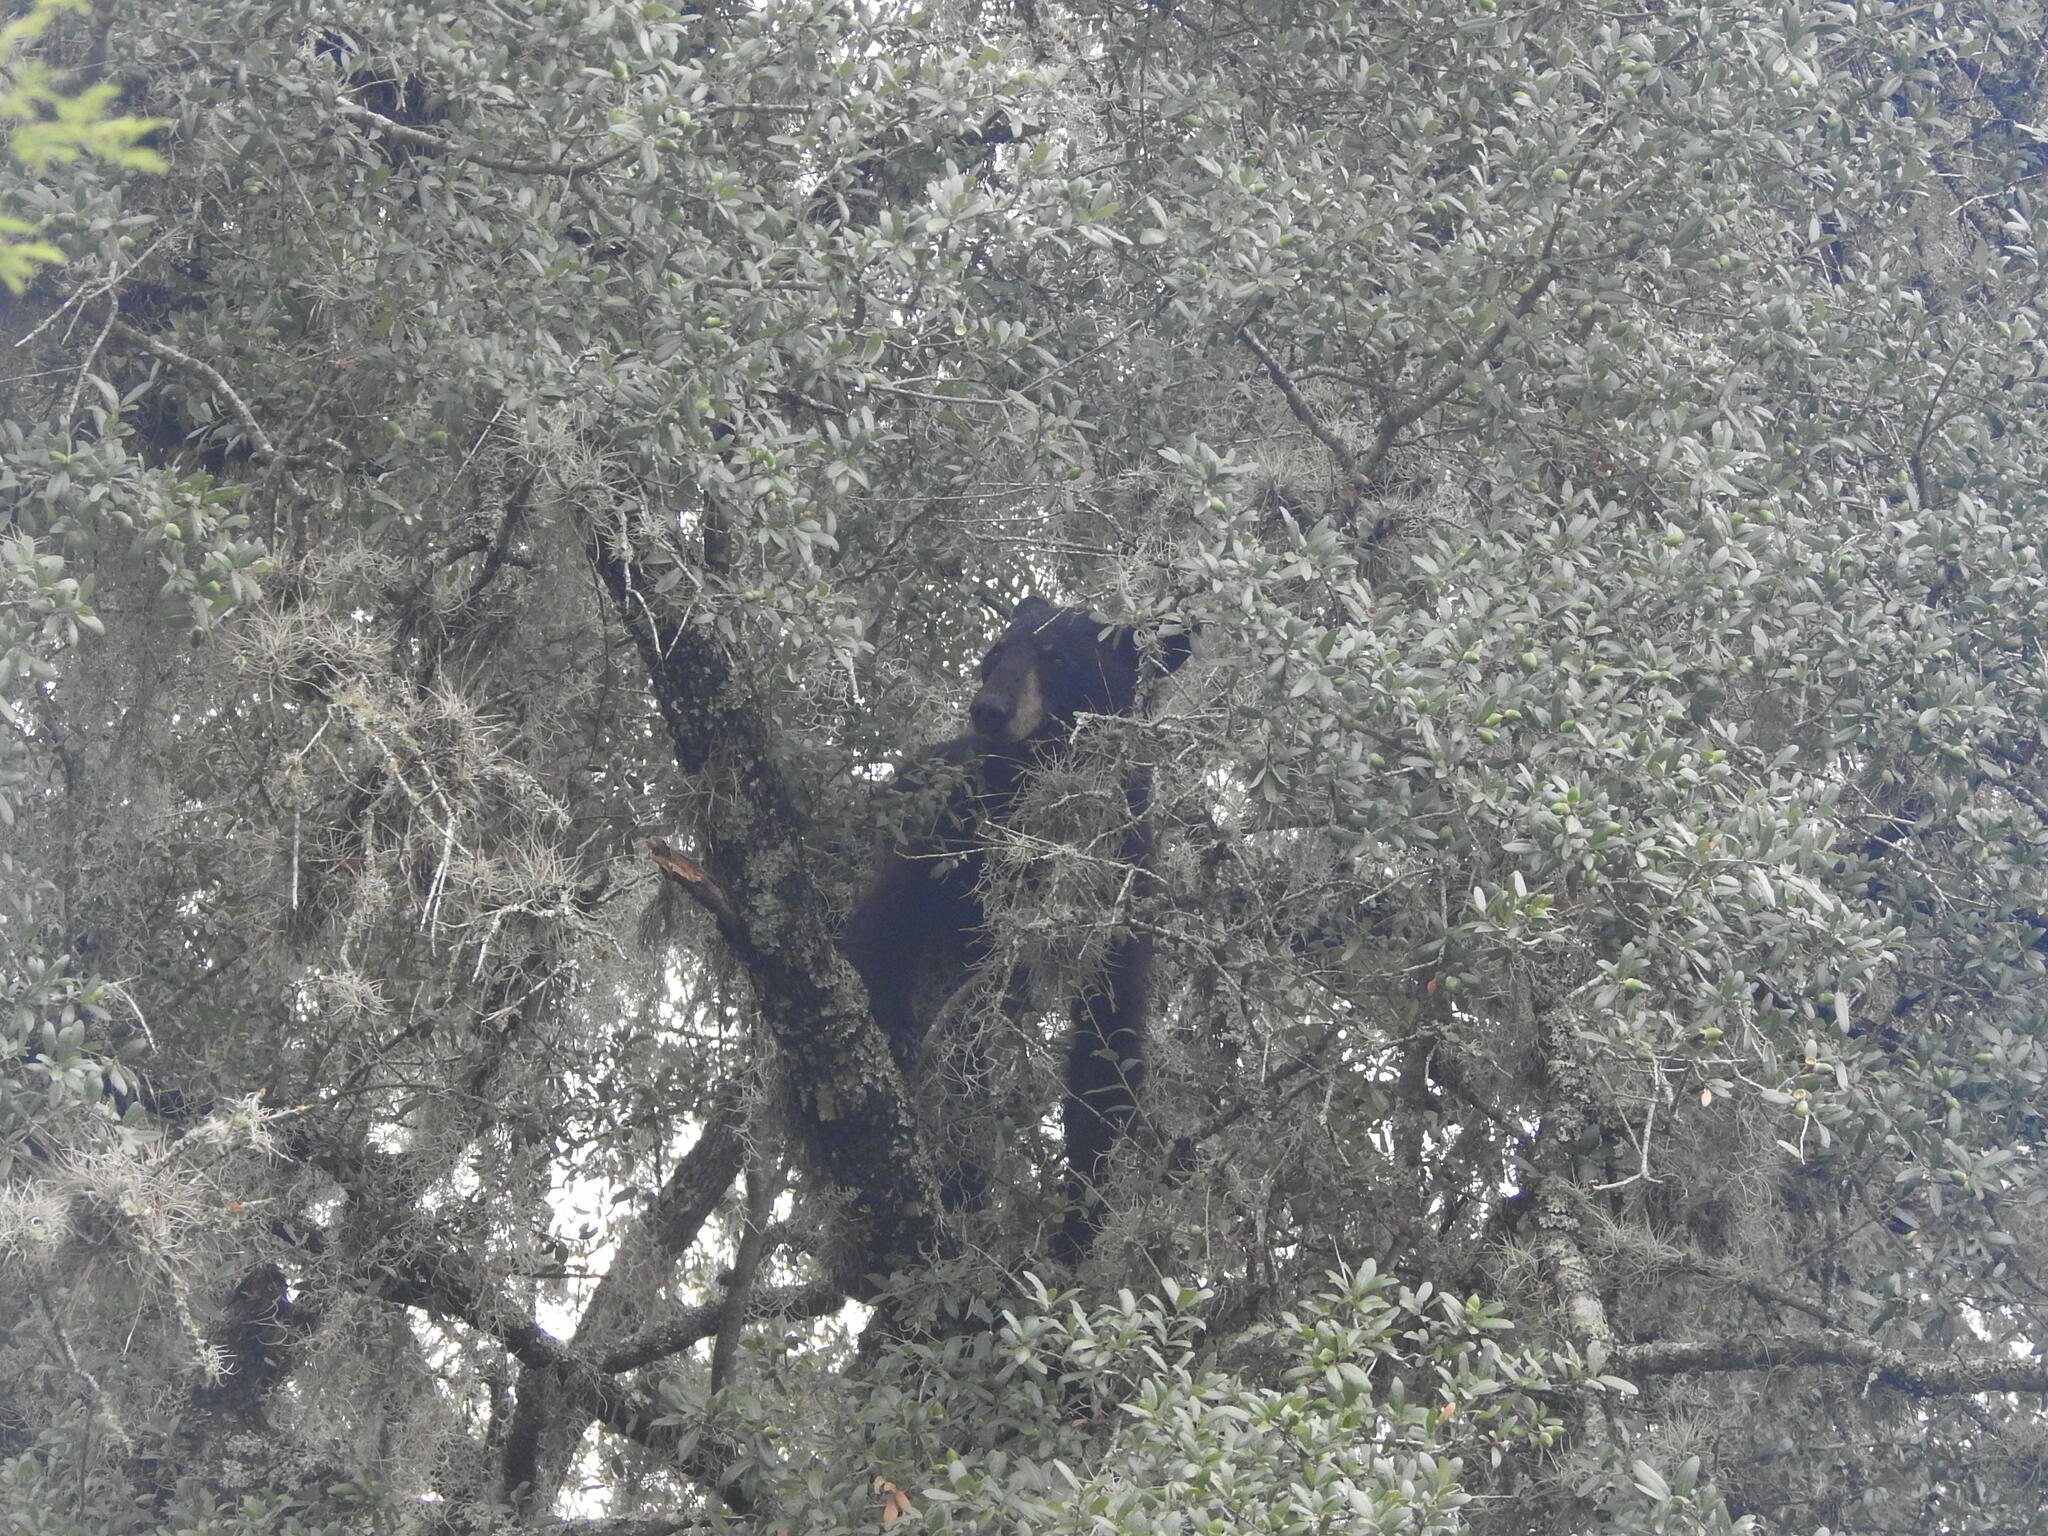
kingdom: Animalia
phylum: Chordata
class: Mammalia
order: Carnivora
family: Ursidae
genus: Ursus
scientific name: Ursus americanus
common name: American black bear
